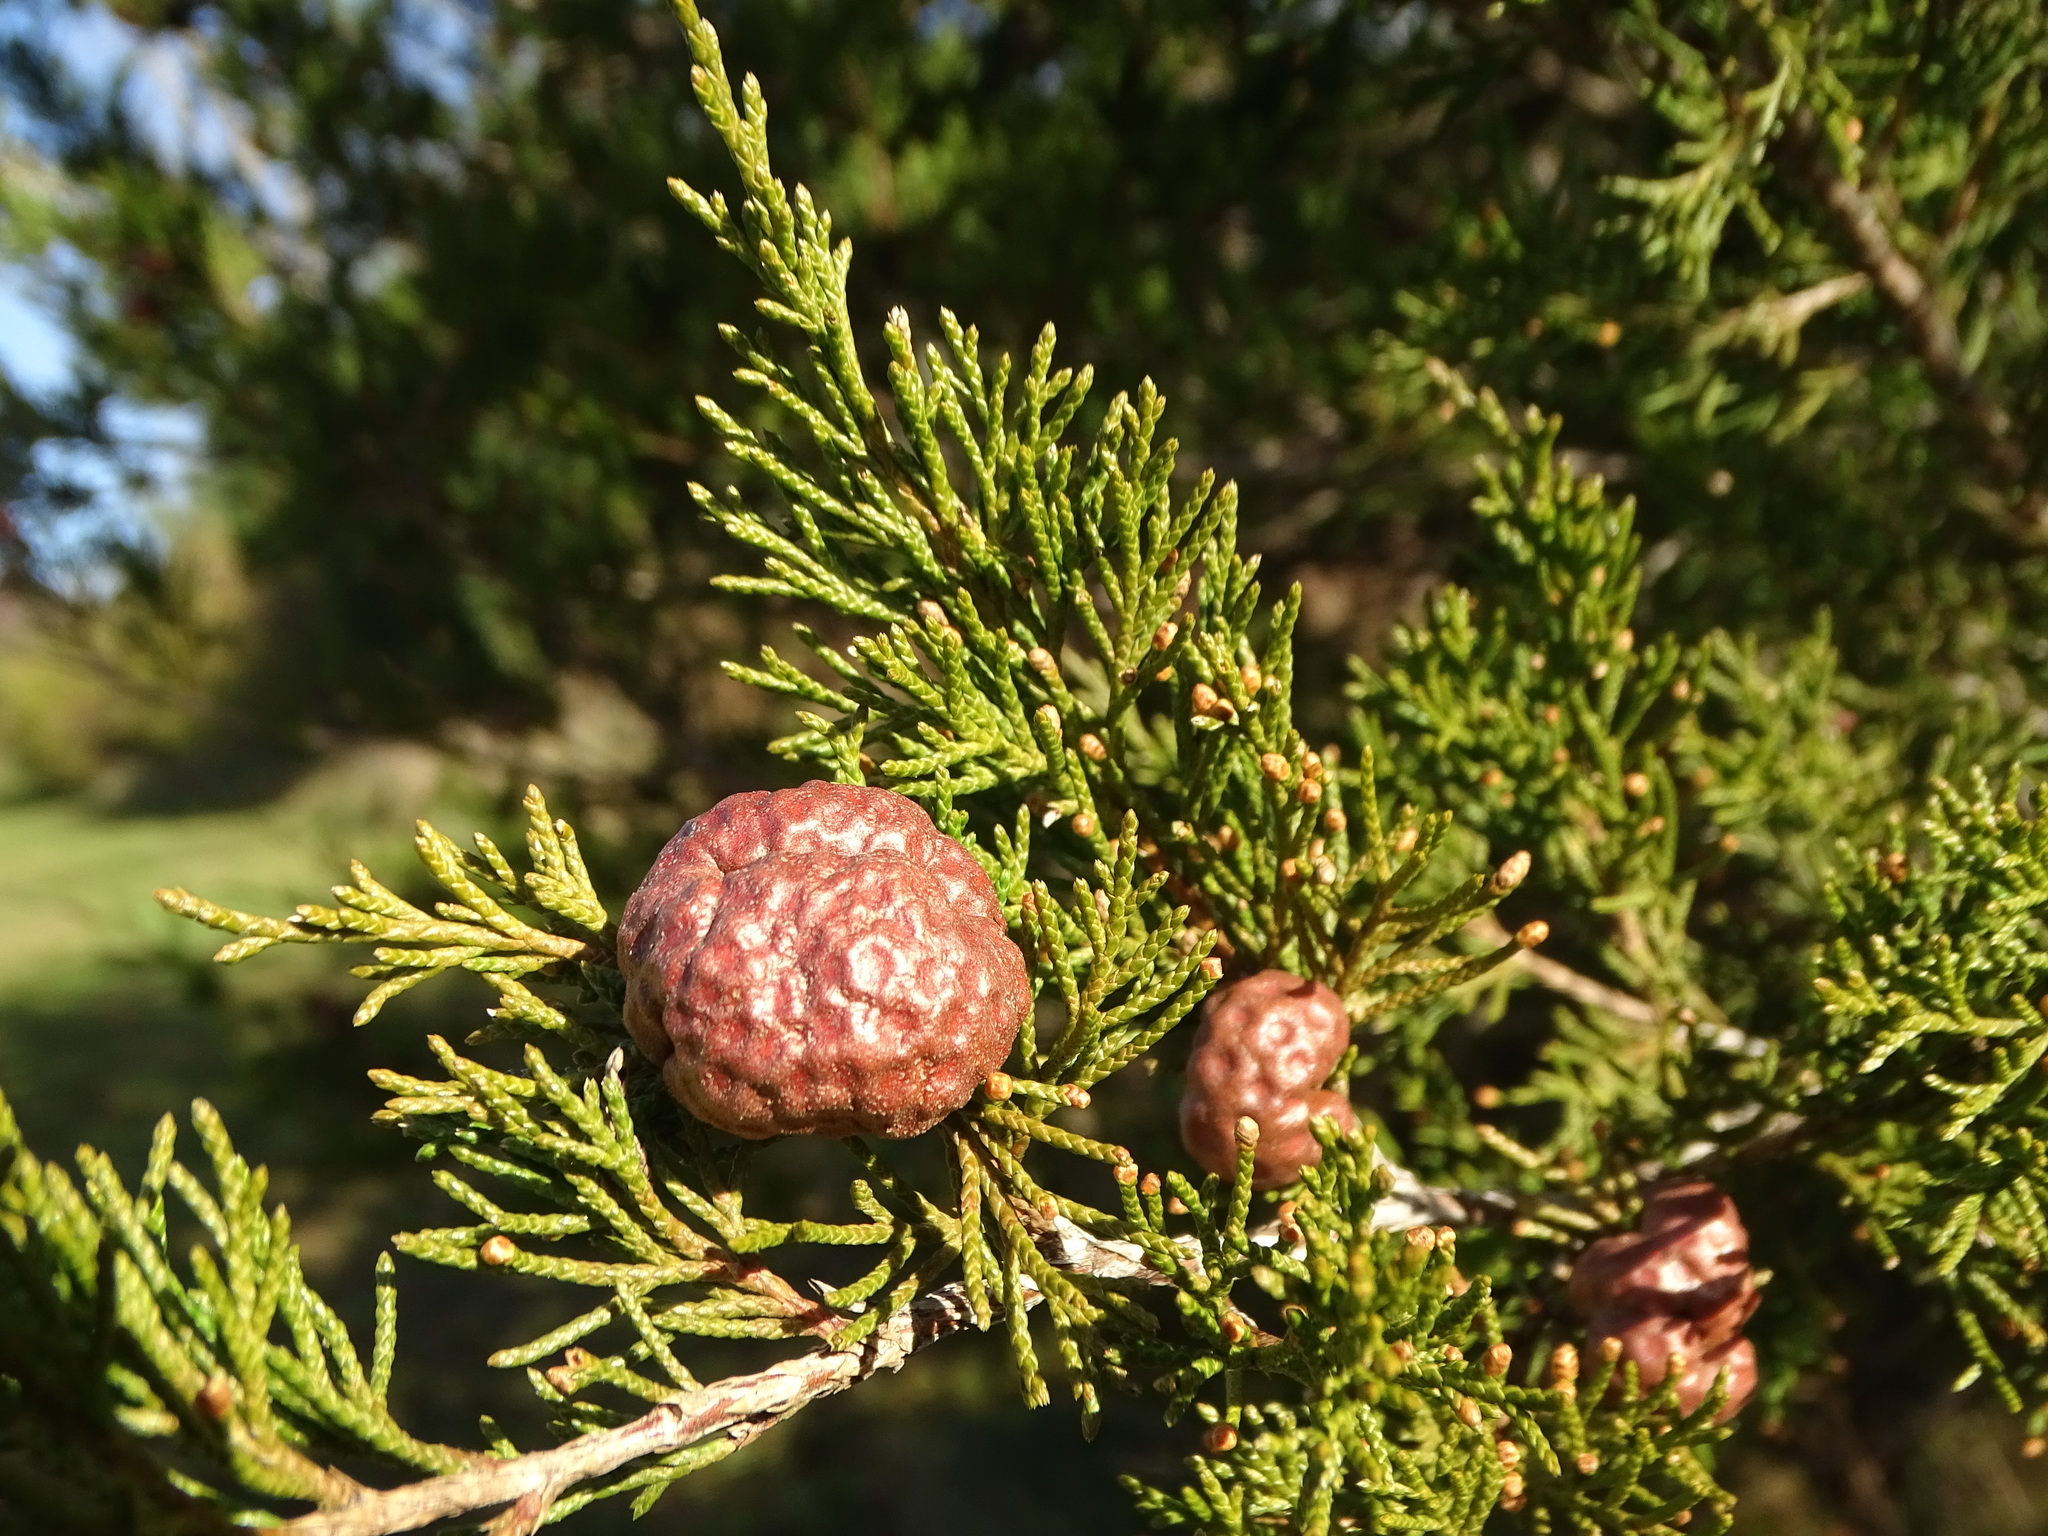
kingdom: Fungi
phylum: Basidiomycota
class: Pucciniomycetes
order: Pucciniales
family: Gymnosporangiaceae
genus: Gymnosporangium
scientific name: Gymnosporangium juniperi-virginianae
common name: Juniper-apple rust
